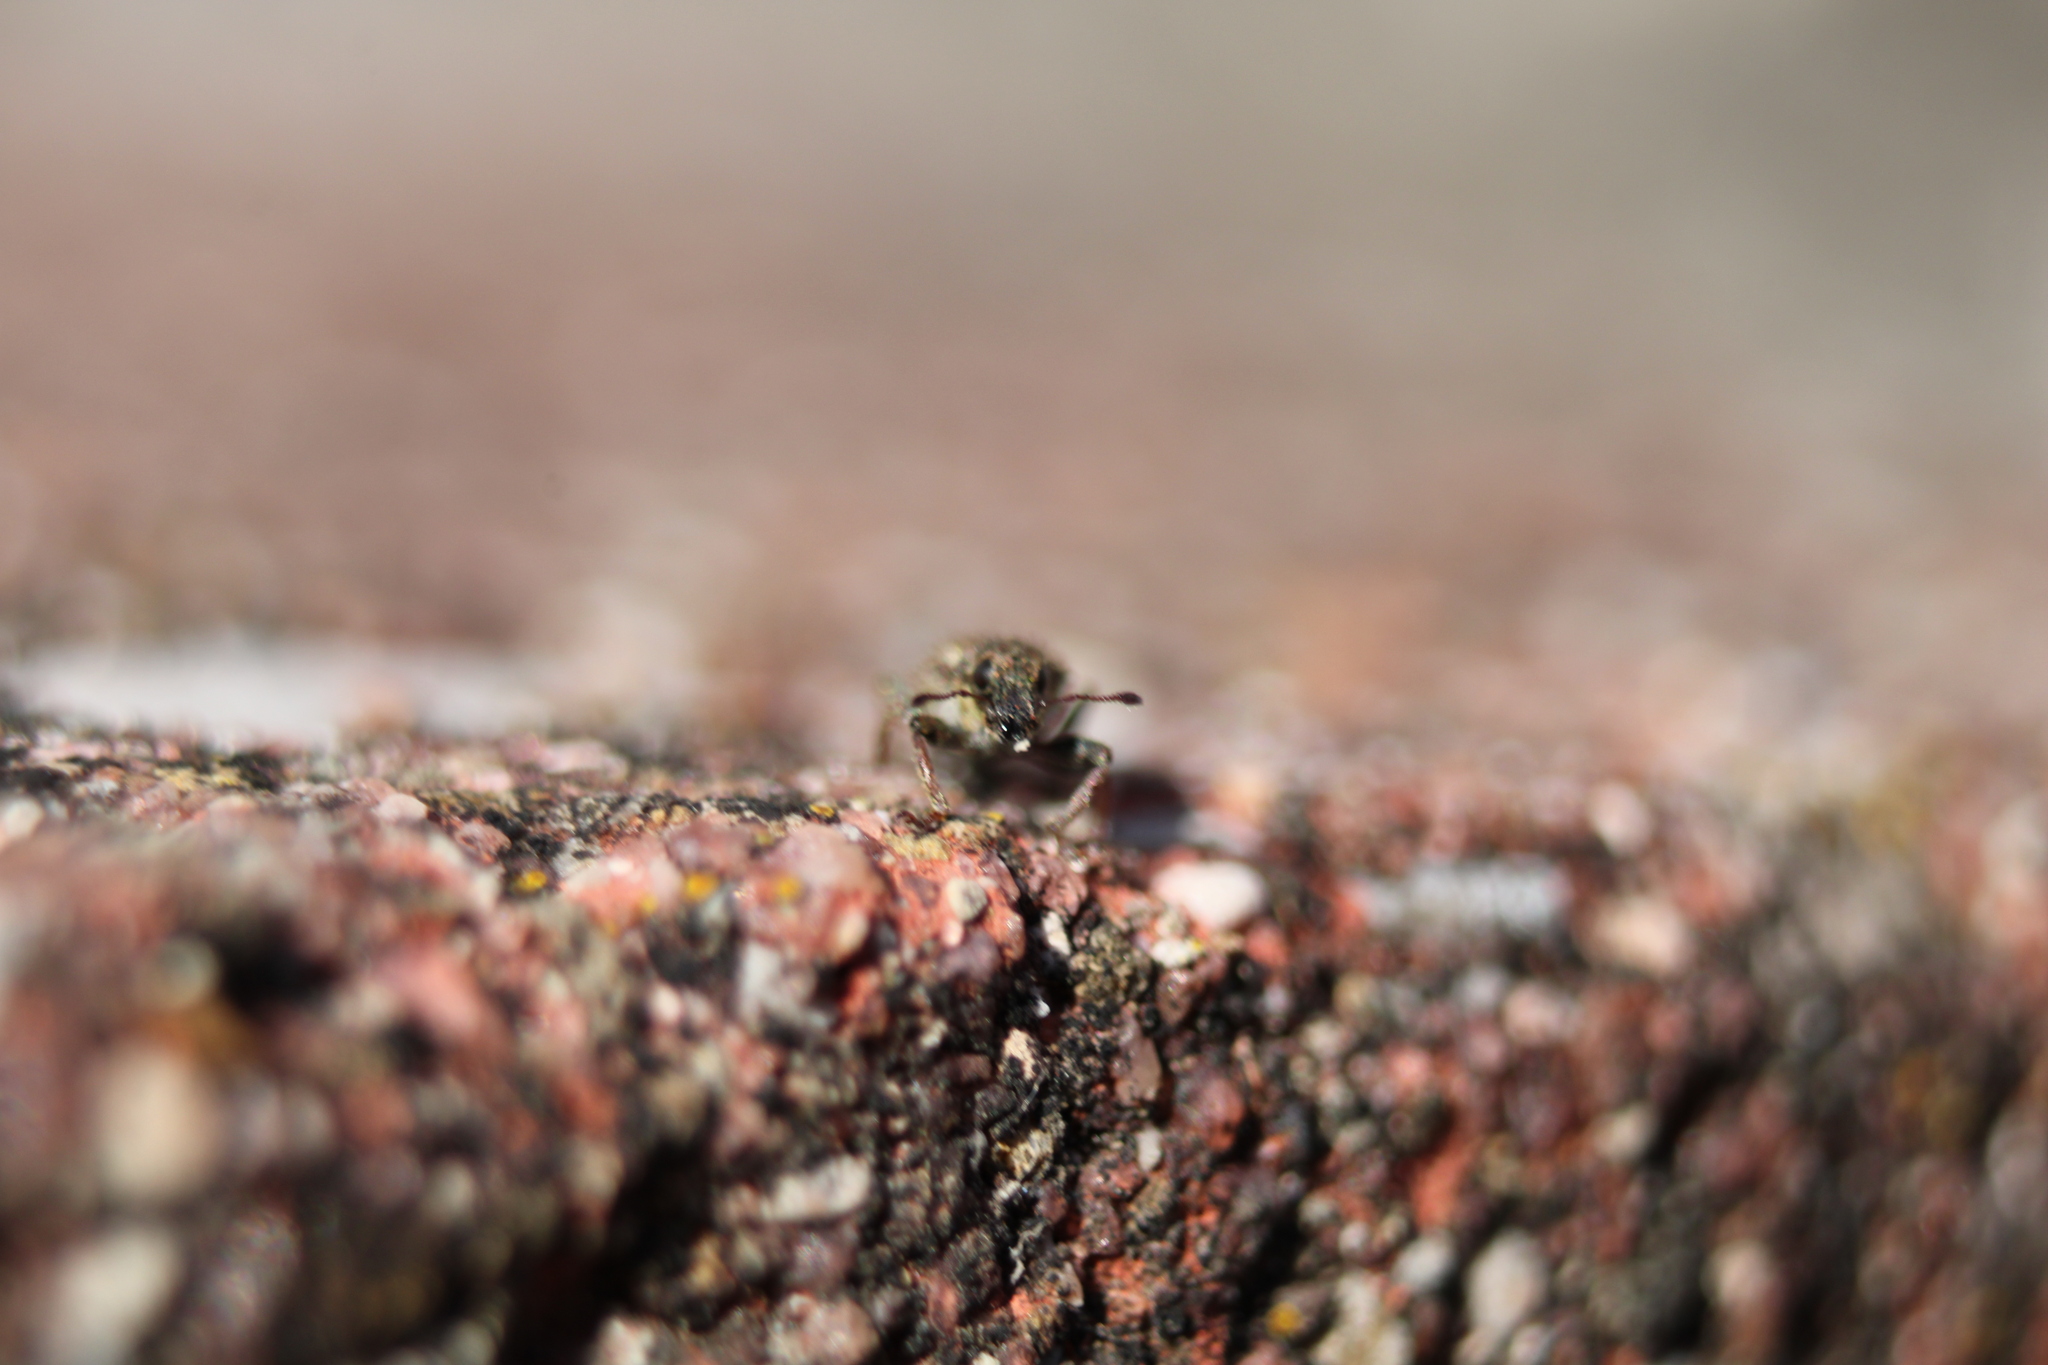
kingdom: Animalia
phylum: Arthropoda
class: Insecta
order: Coleoptera
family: Curculionidae
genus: Sitona
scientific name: Sitona hispidulus
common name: Clover weevil
